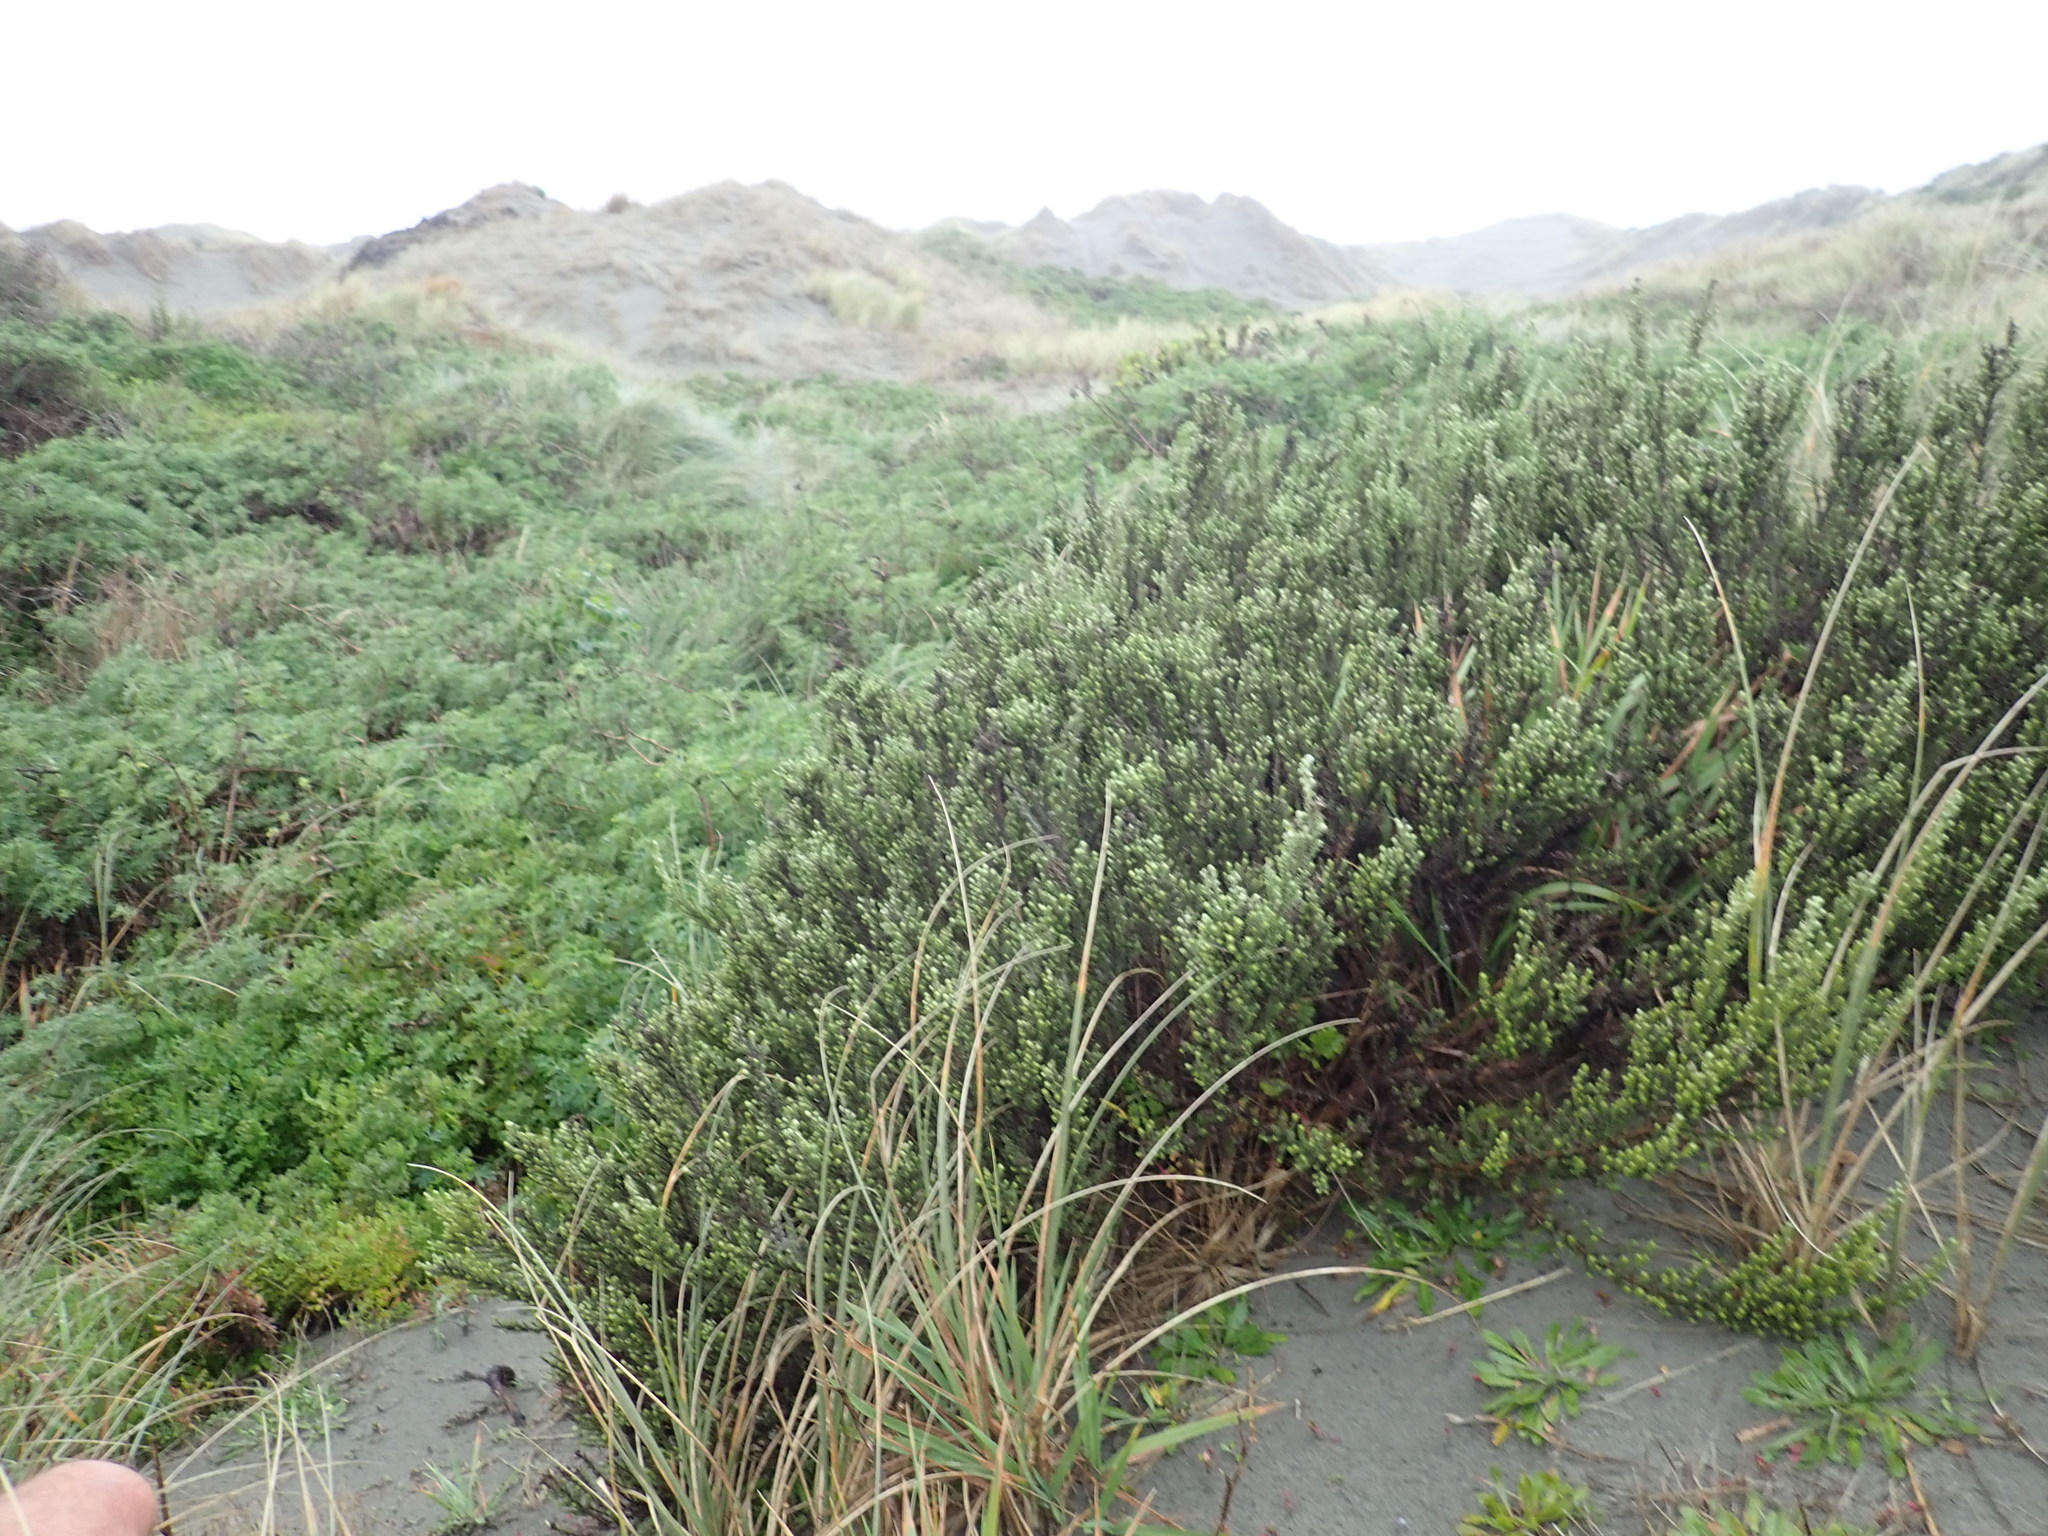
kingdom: Plantae
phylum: Tracheophyta
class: Magnoliopsida
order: Asterales
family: Asteraceae
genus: Ozothamnus
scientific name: Ozothamnus leptophyllus
